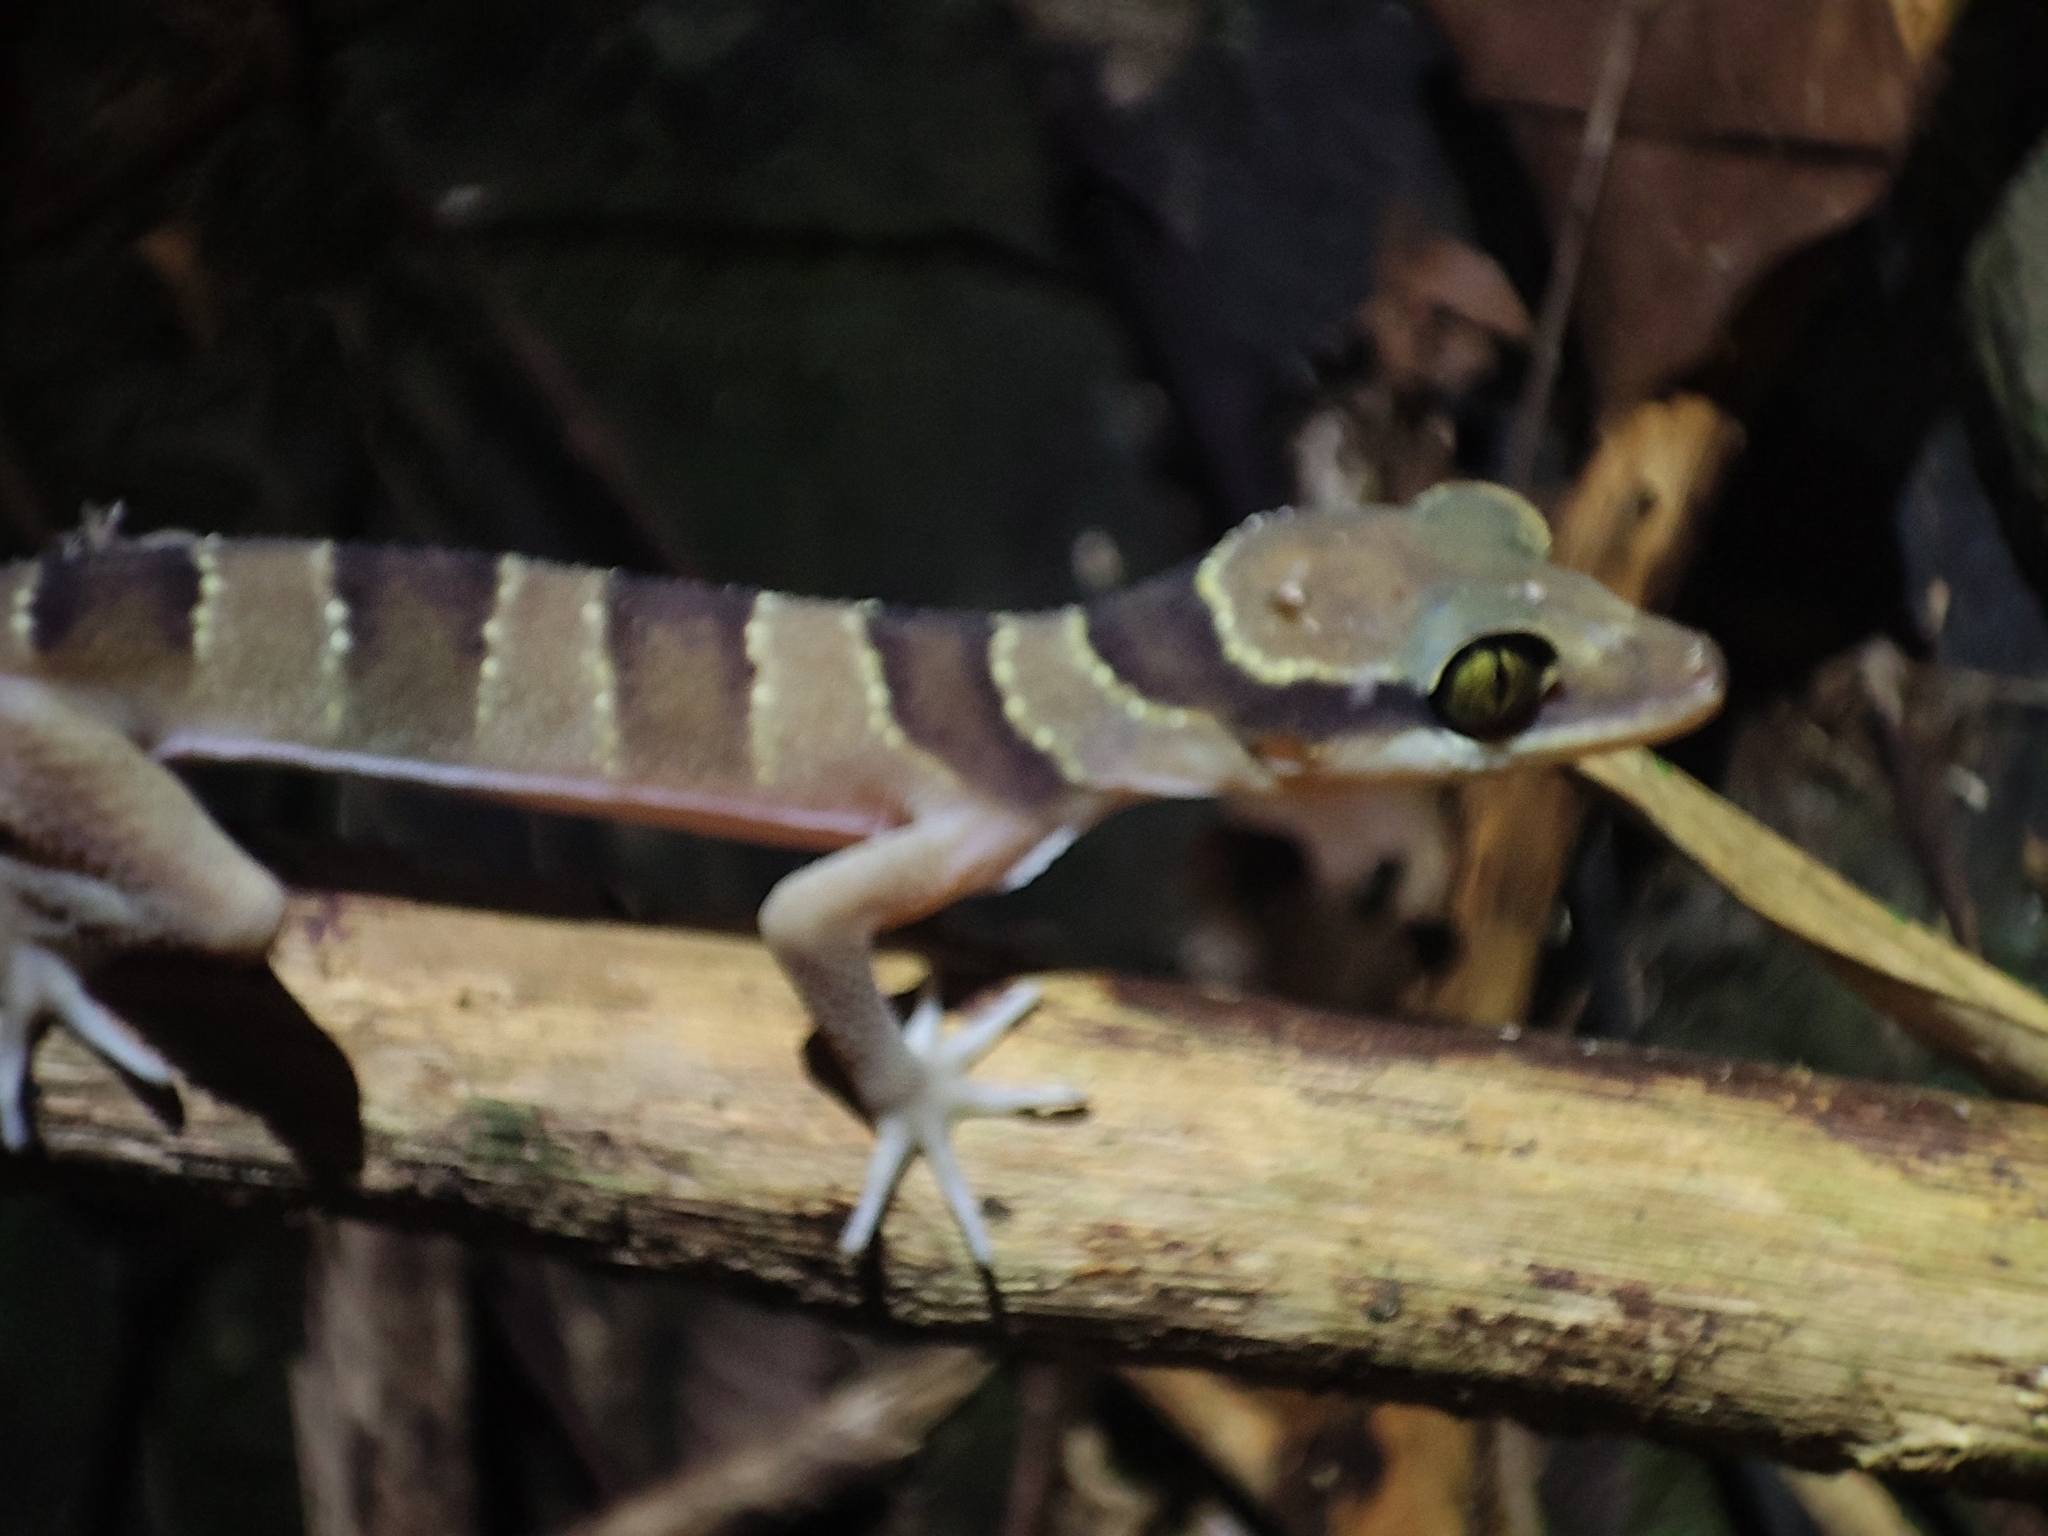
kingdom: Animalia
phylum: Chordata
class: Squamata
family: Gekkonidae
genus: Cyrtodactylus
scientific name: Cyrtodactylus lekaguli
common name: Tuk-kai boonsong bent-toed gecko
